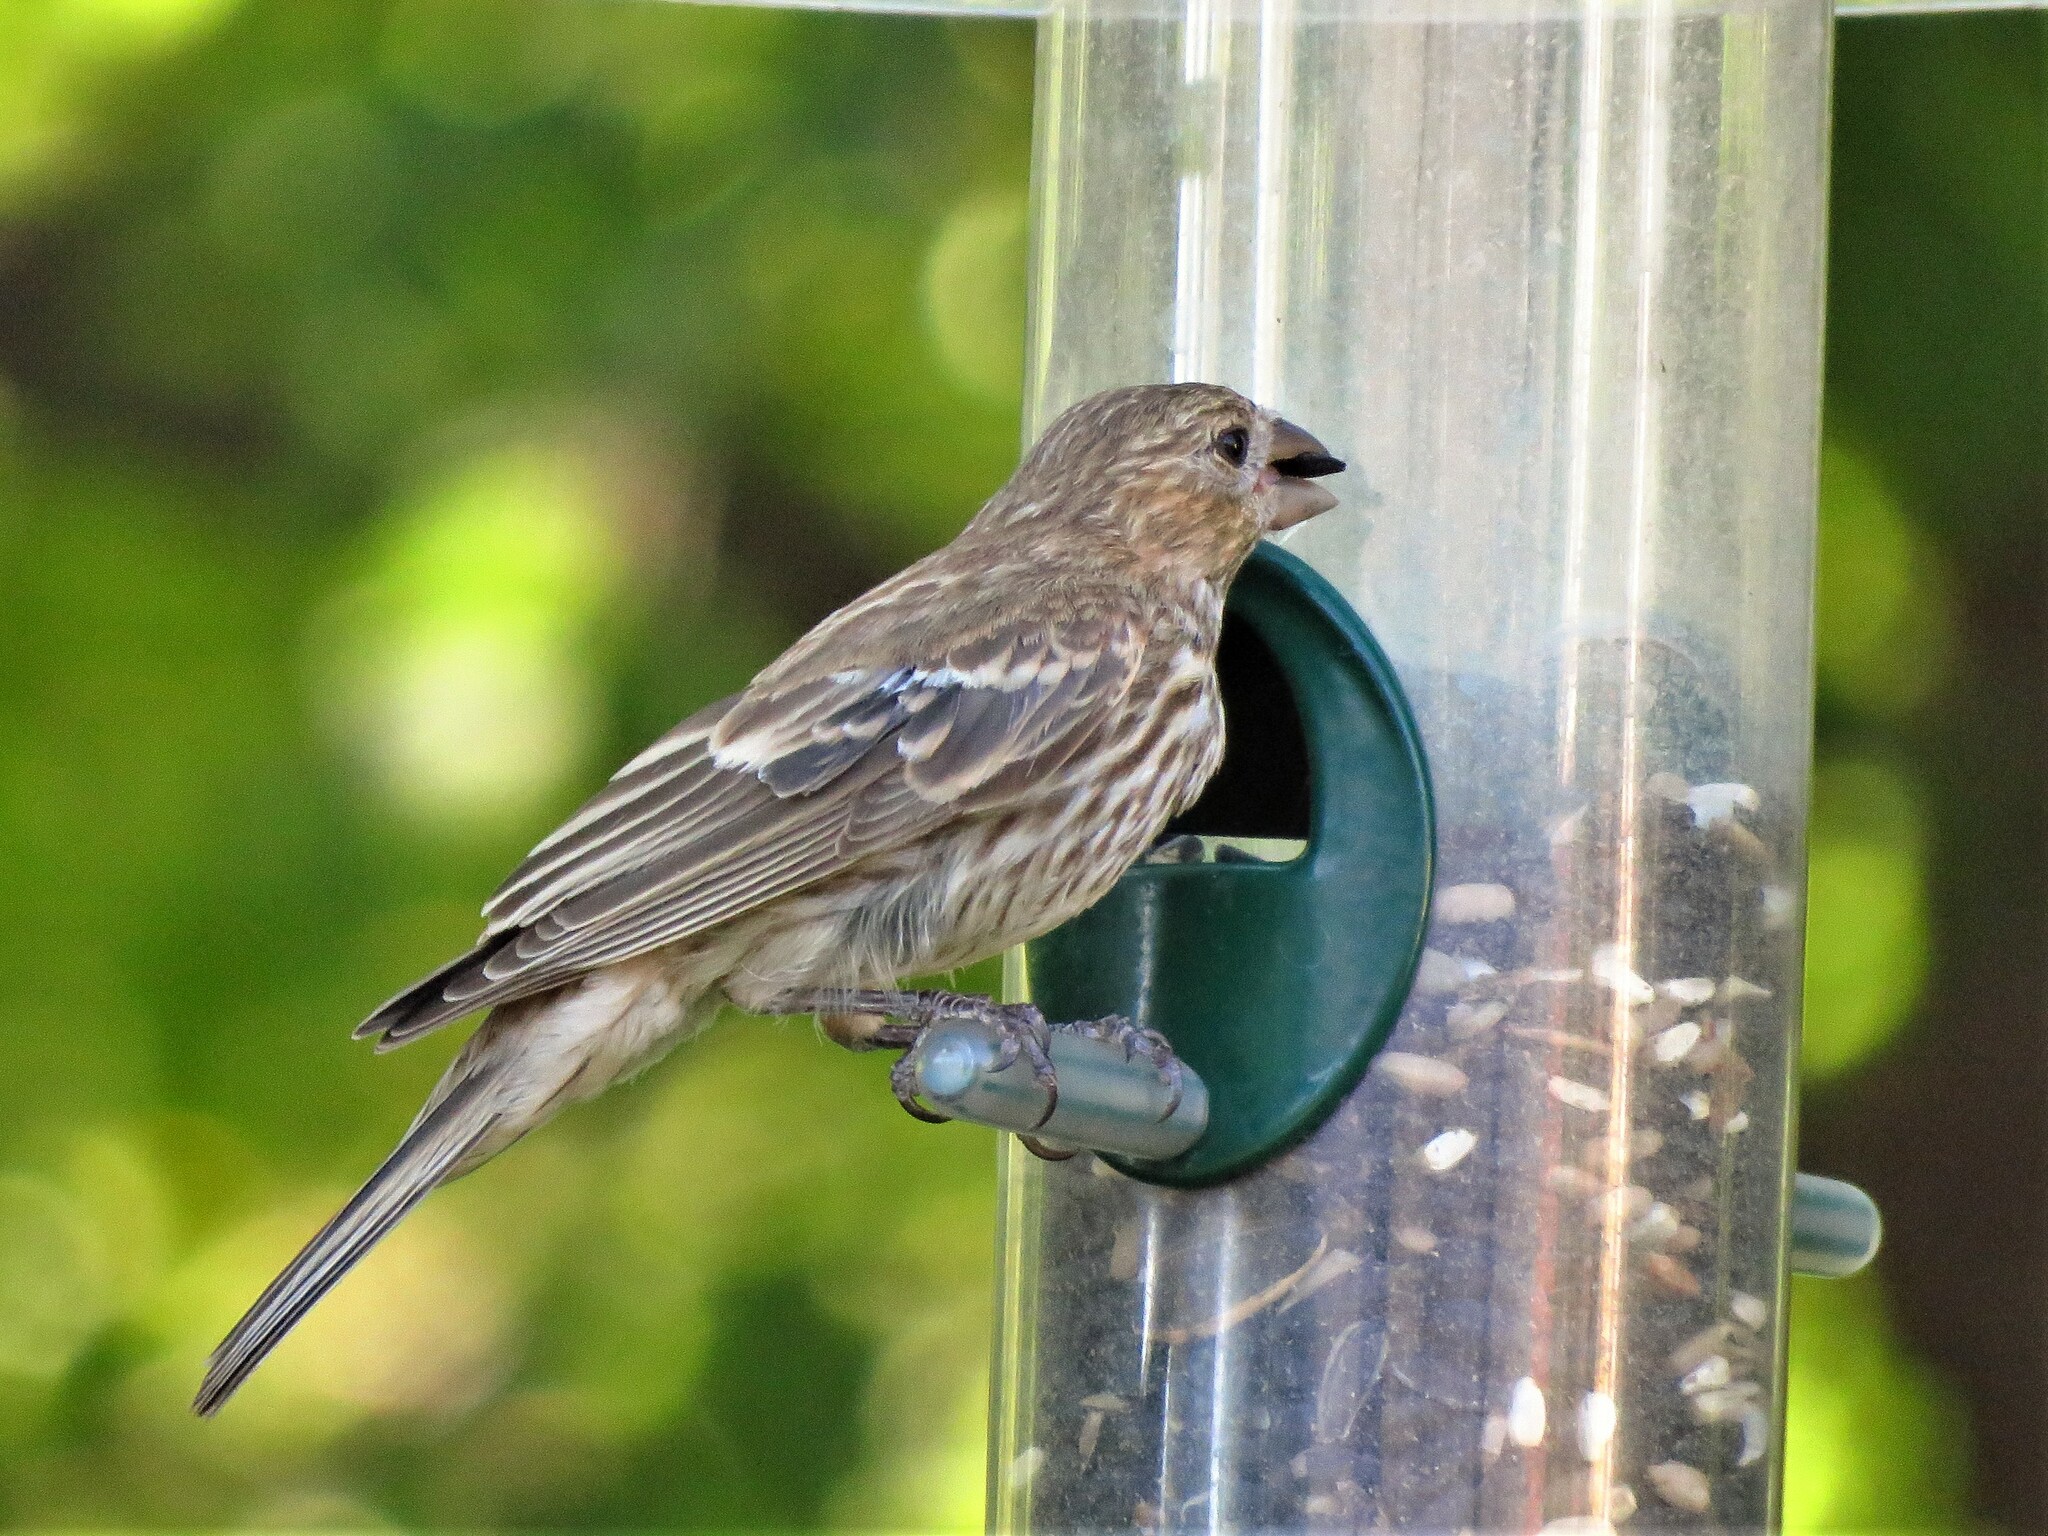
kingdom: Animalia
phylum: Chordata
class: Aves
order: Passeriformes
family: Fringillidae
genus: Haemorhous
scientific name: Haemorhous mexicanus
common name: House finch
